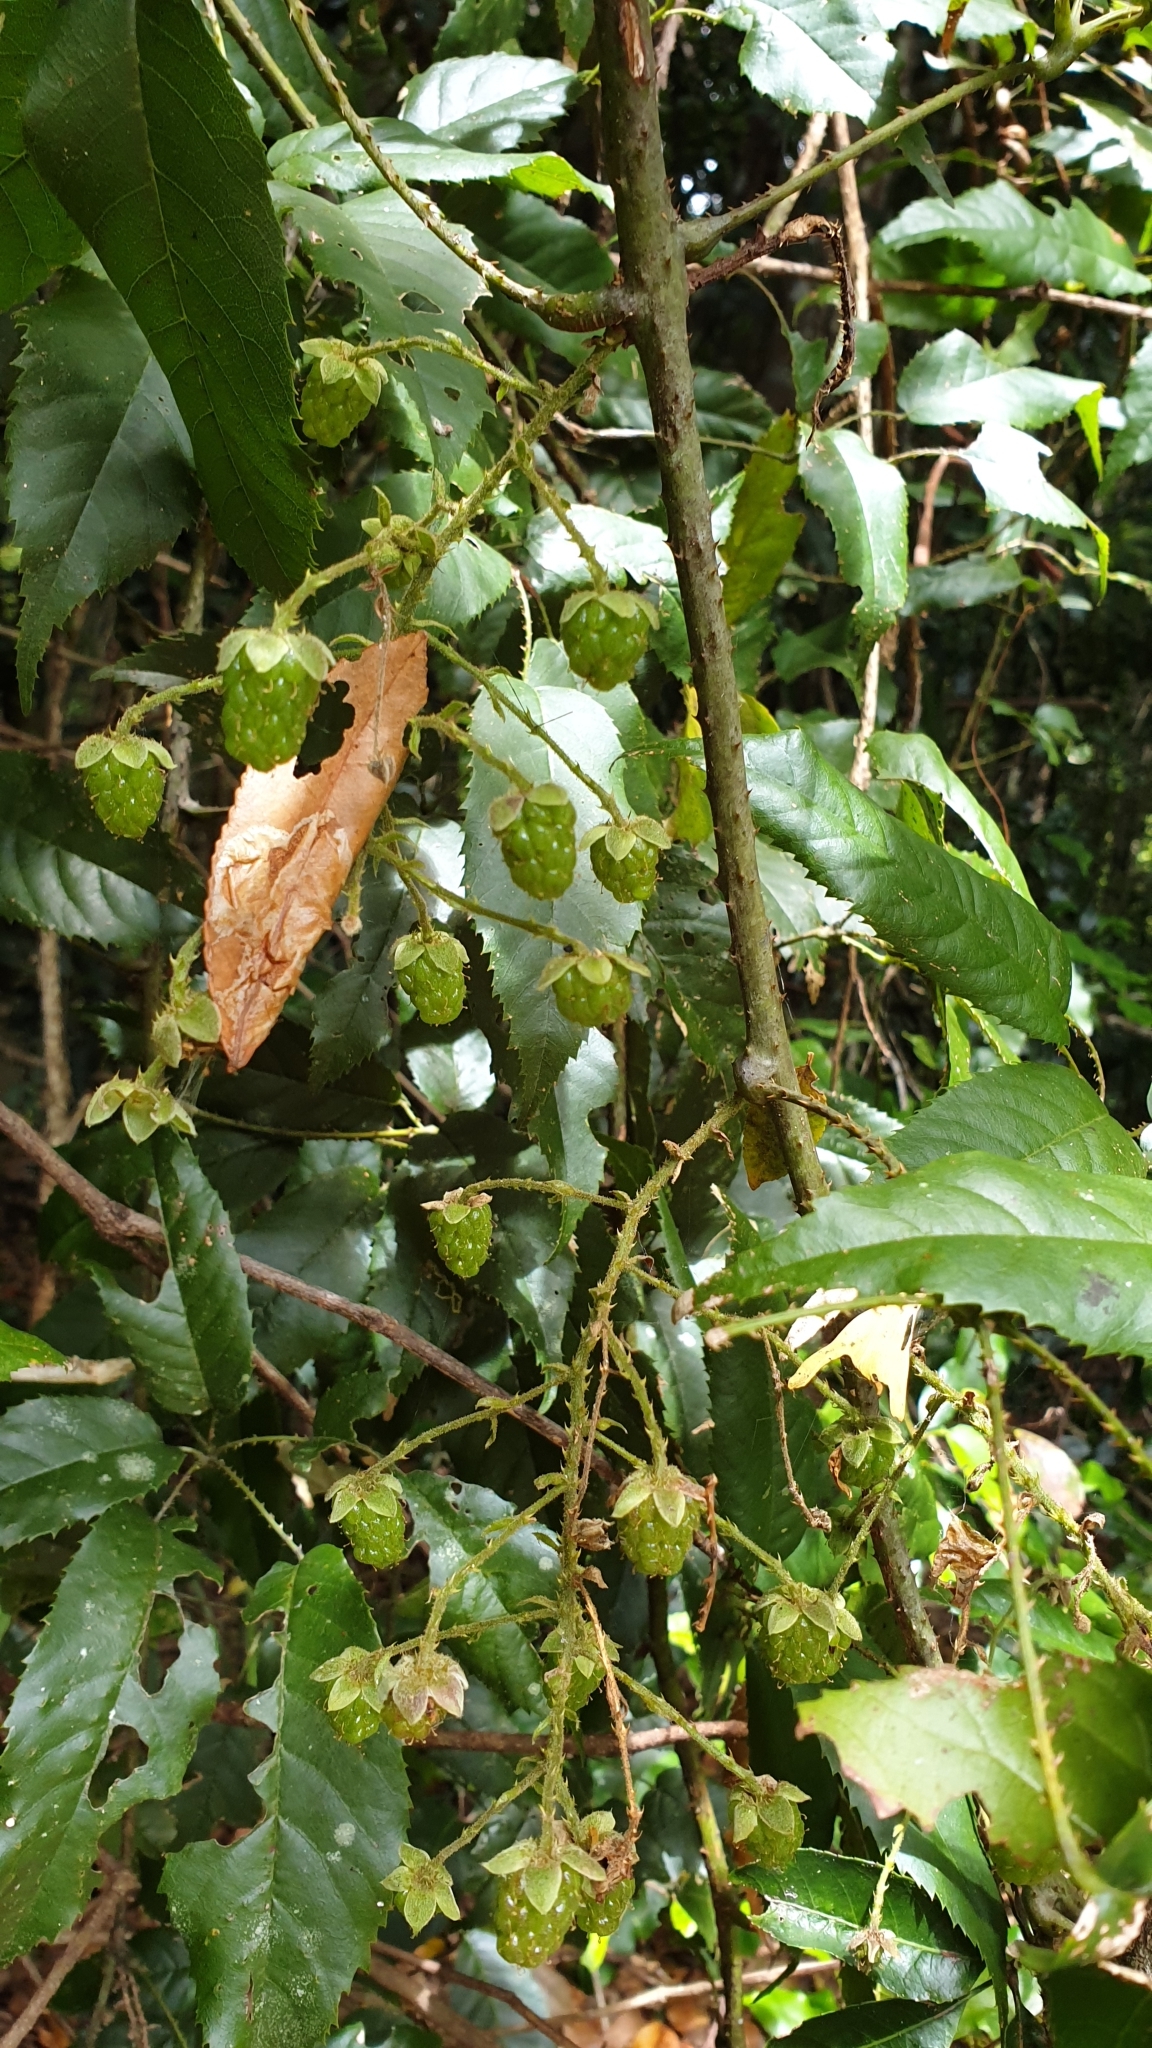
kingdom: Plantae
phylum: Tracheophyta
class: Magnoliopsida
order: Rosales
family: Rosaceae
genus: Rubus
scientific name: Rubus nebulosus
